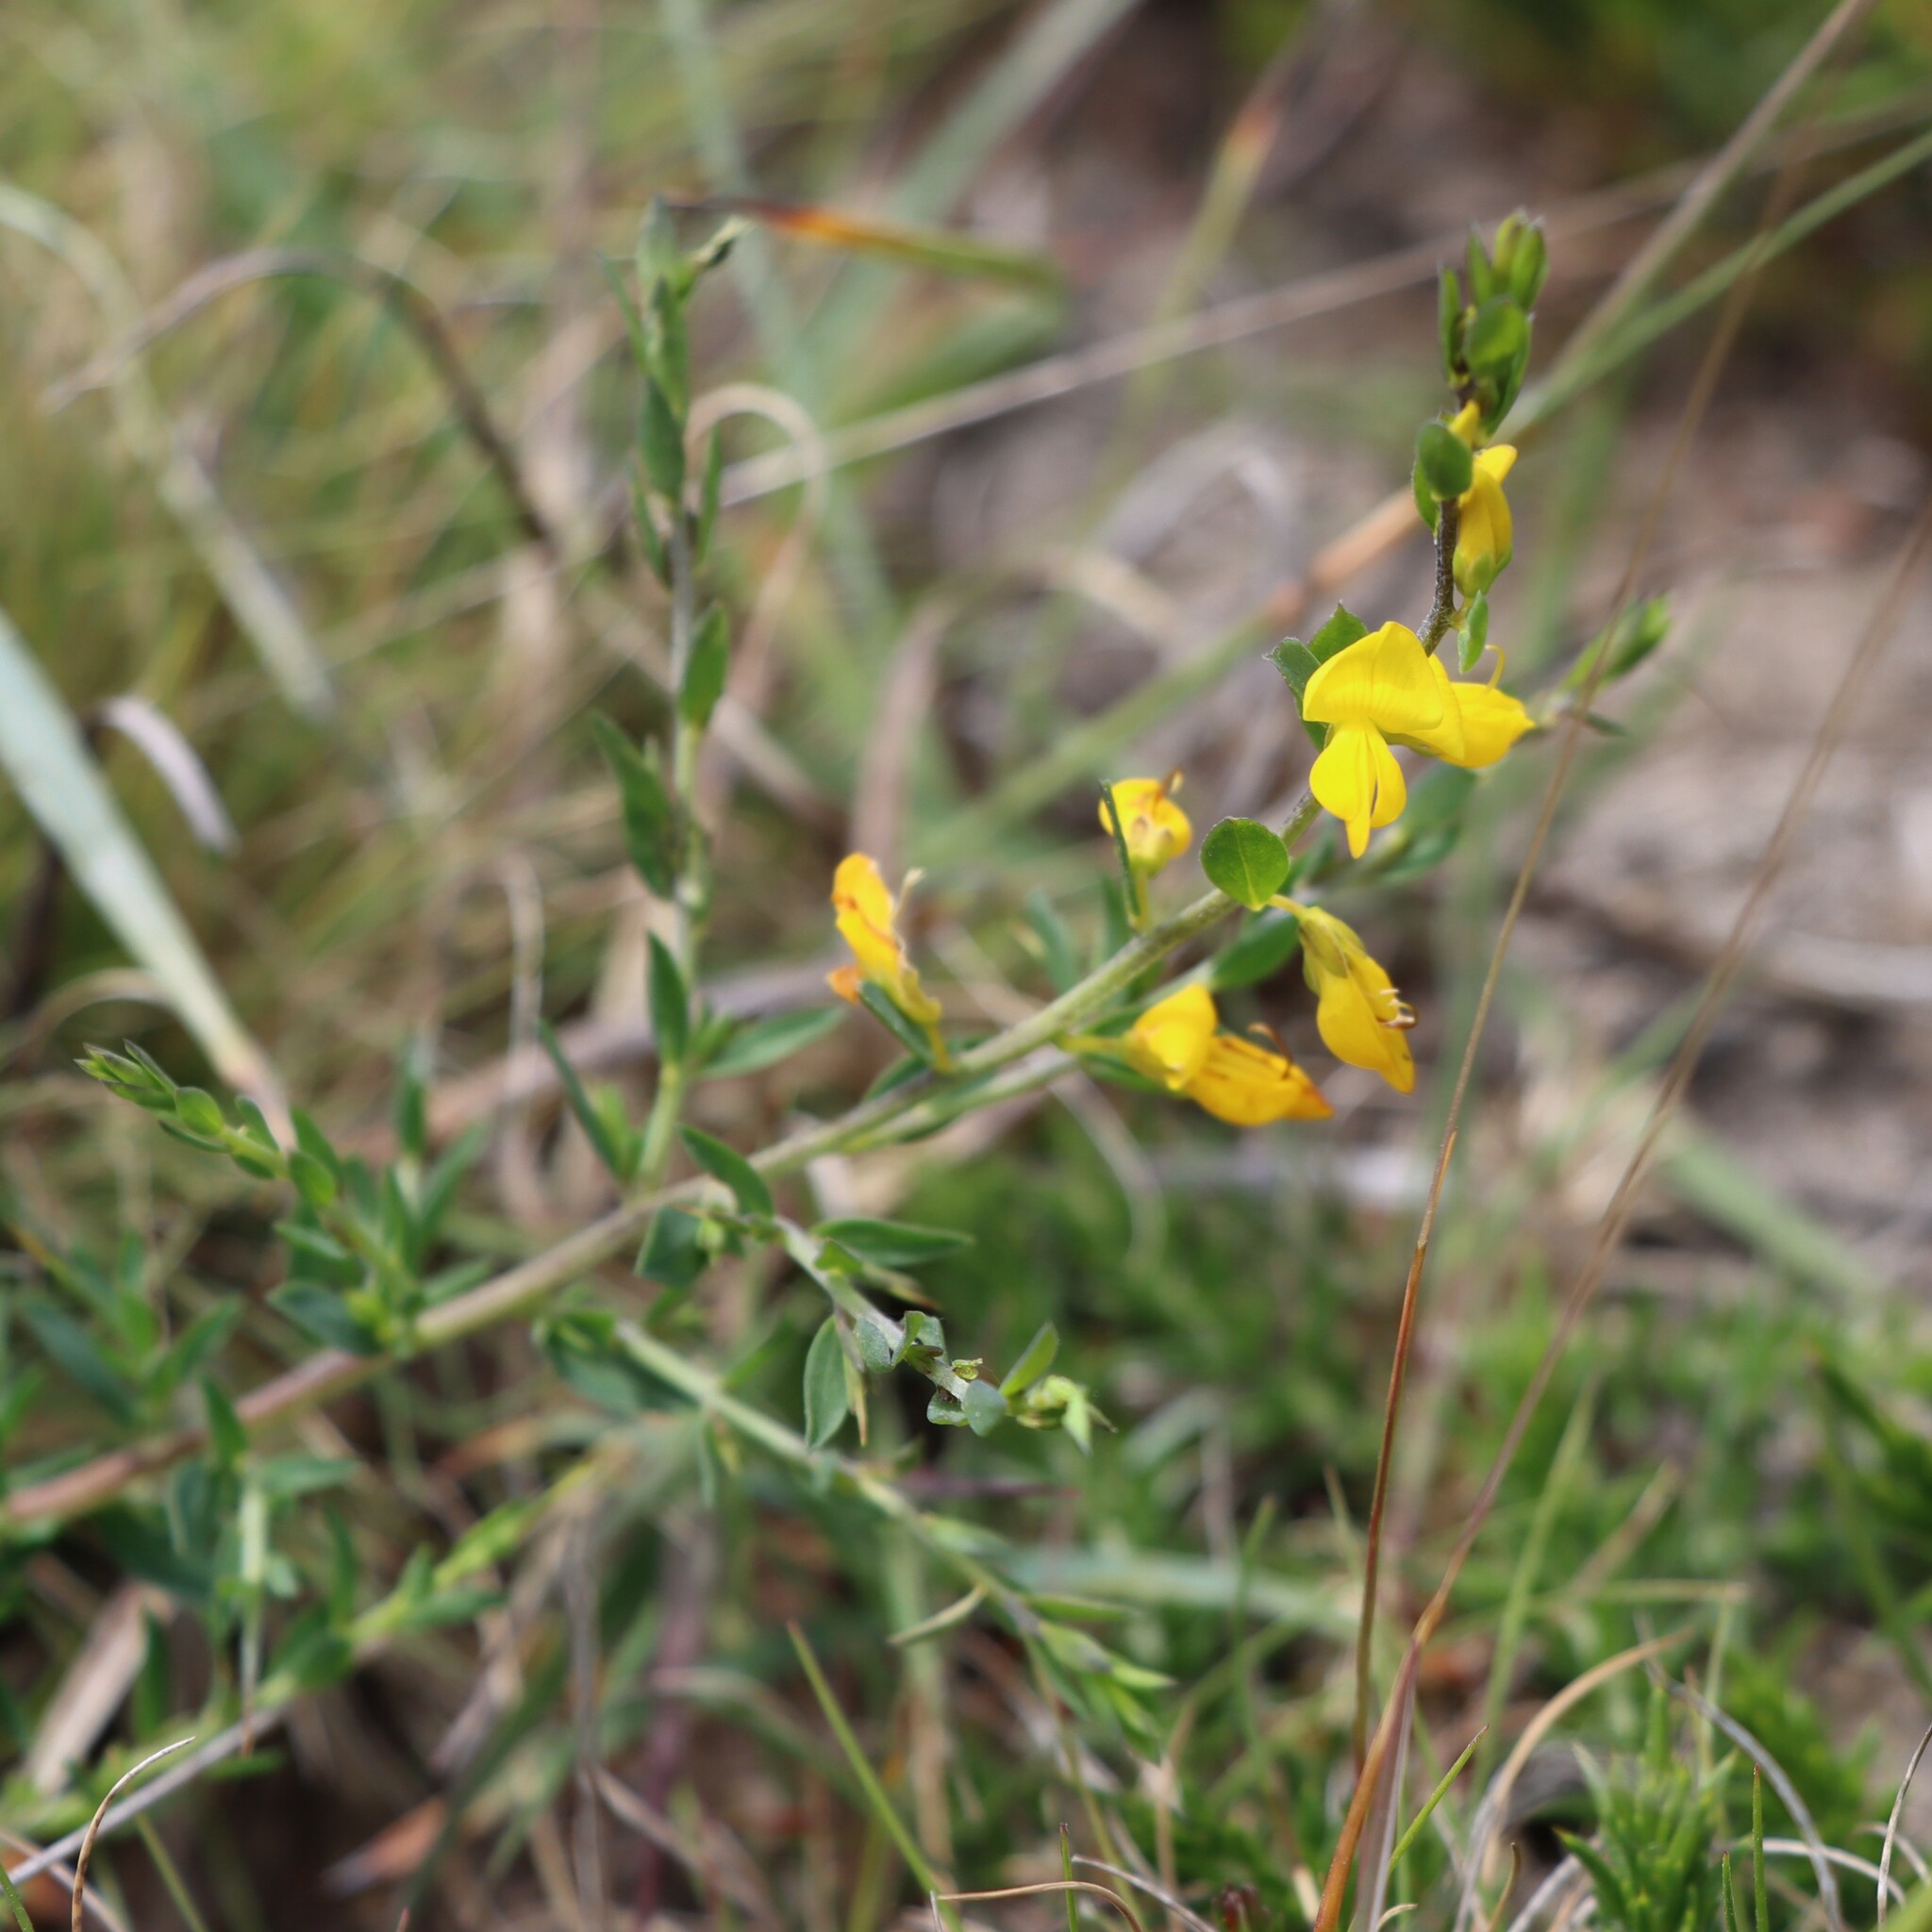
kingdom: Plantae
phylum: Tracheophyta
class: Magnoliopsida
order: Fabales
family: Fabaceae
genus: Genista
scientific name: Genista anglica
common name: Petty whin
